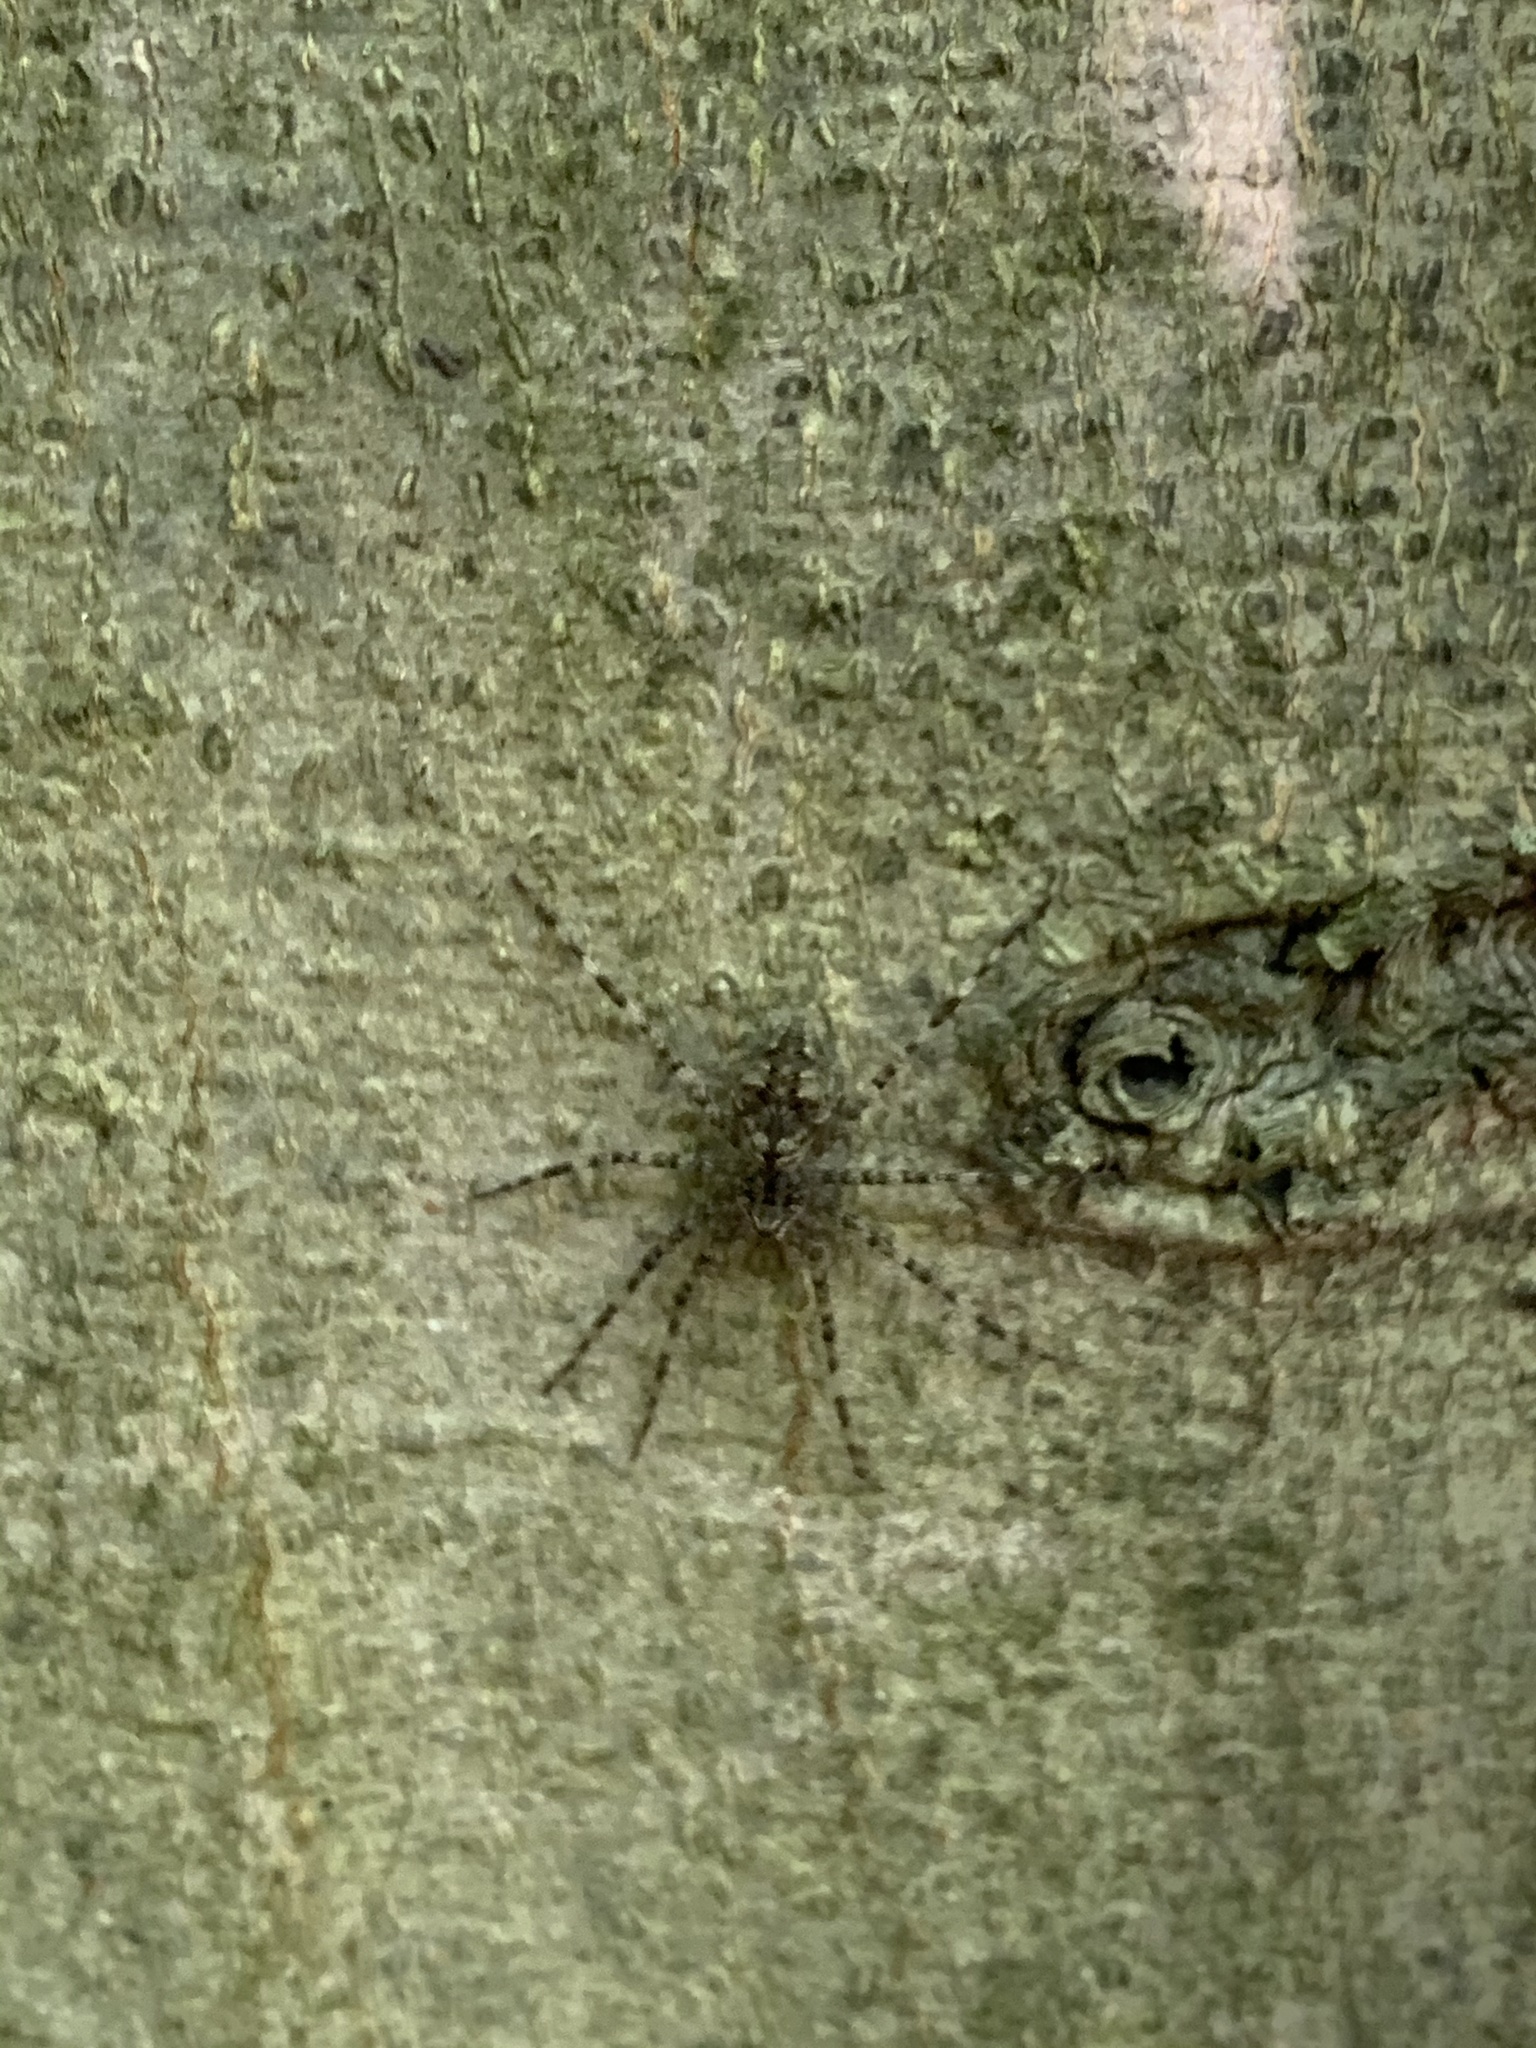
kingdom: Animalia
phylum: Arthropoda
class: Arachnida
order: Araneae
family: Pisauridae
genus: Dolomedes
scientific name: Dolomedes albineus
